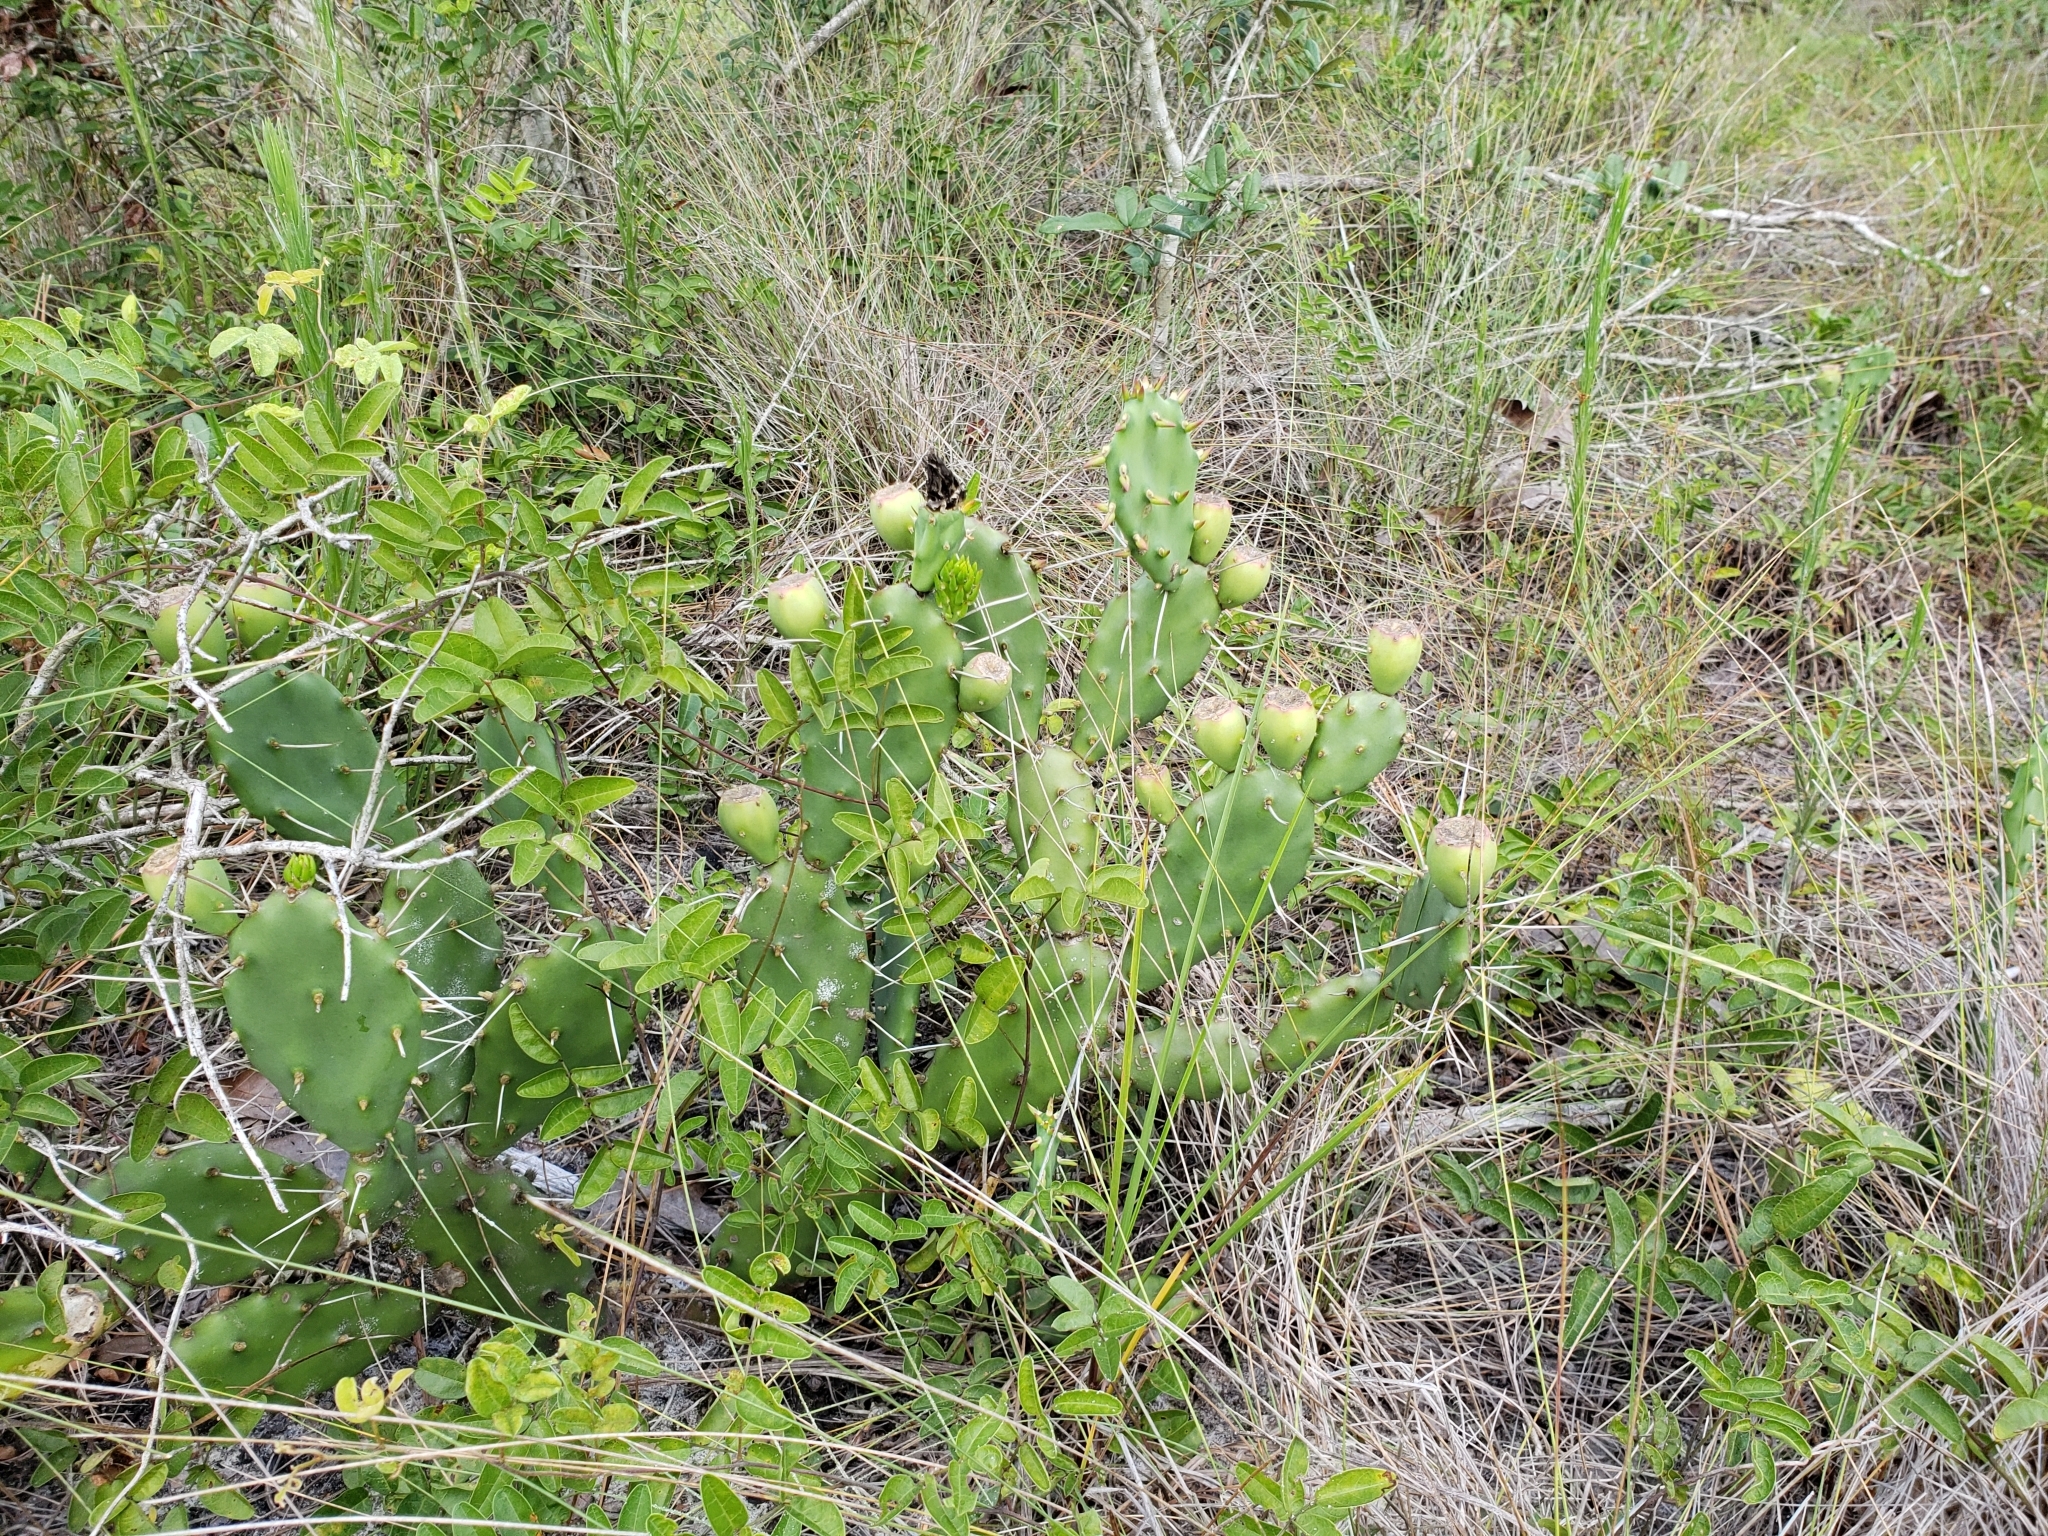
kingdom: Plantae
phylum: Tracheophyta
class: Magnoliopsida
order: Caryophyllales
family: Cactaceae
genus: Opuntia
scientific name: Opuntia austrina
